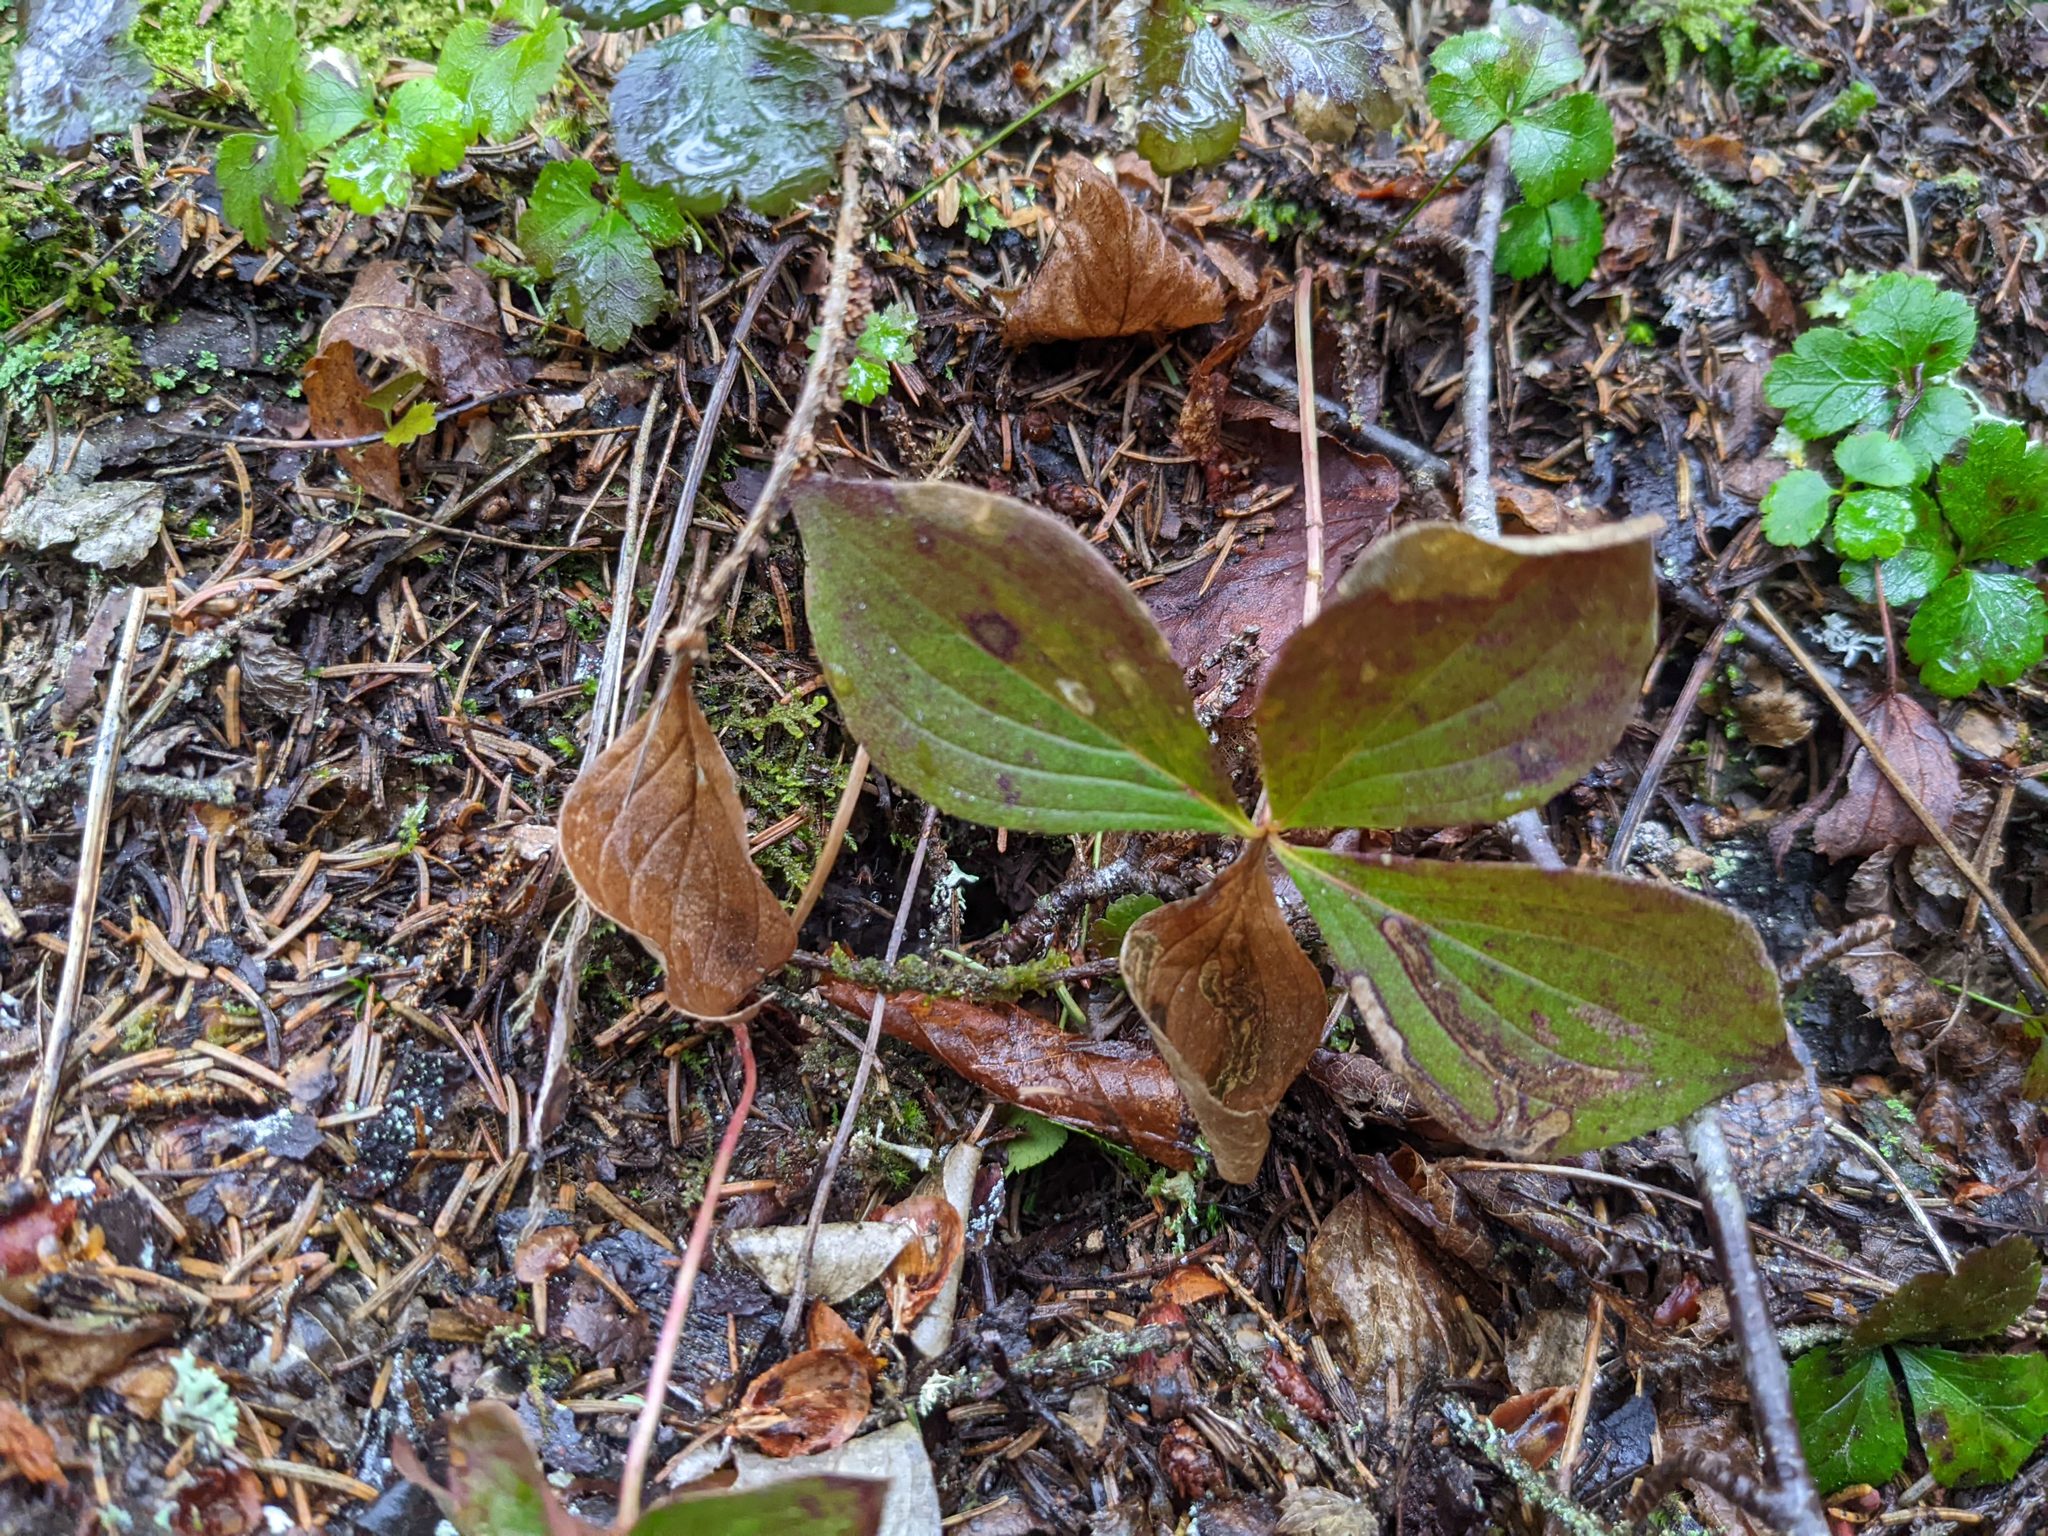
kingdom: Plantae
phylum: Tracheophyta
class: Magnoliopsida
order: Cornales
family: Cornaceae
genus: Cornus
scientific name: Cornus canadensis
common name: Creeping dogwood
